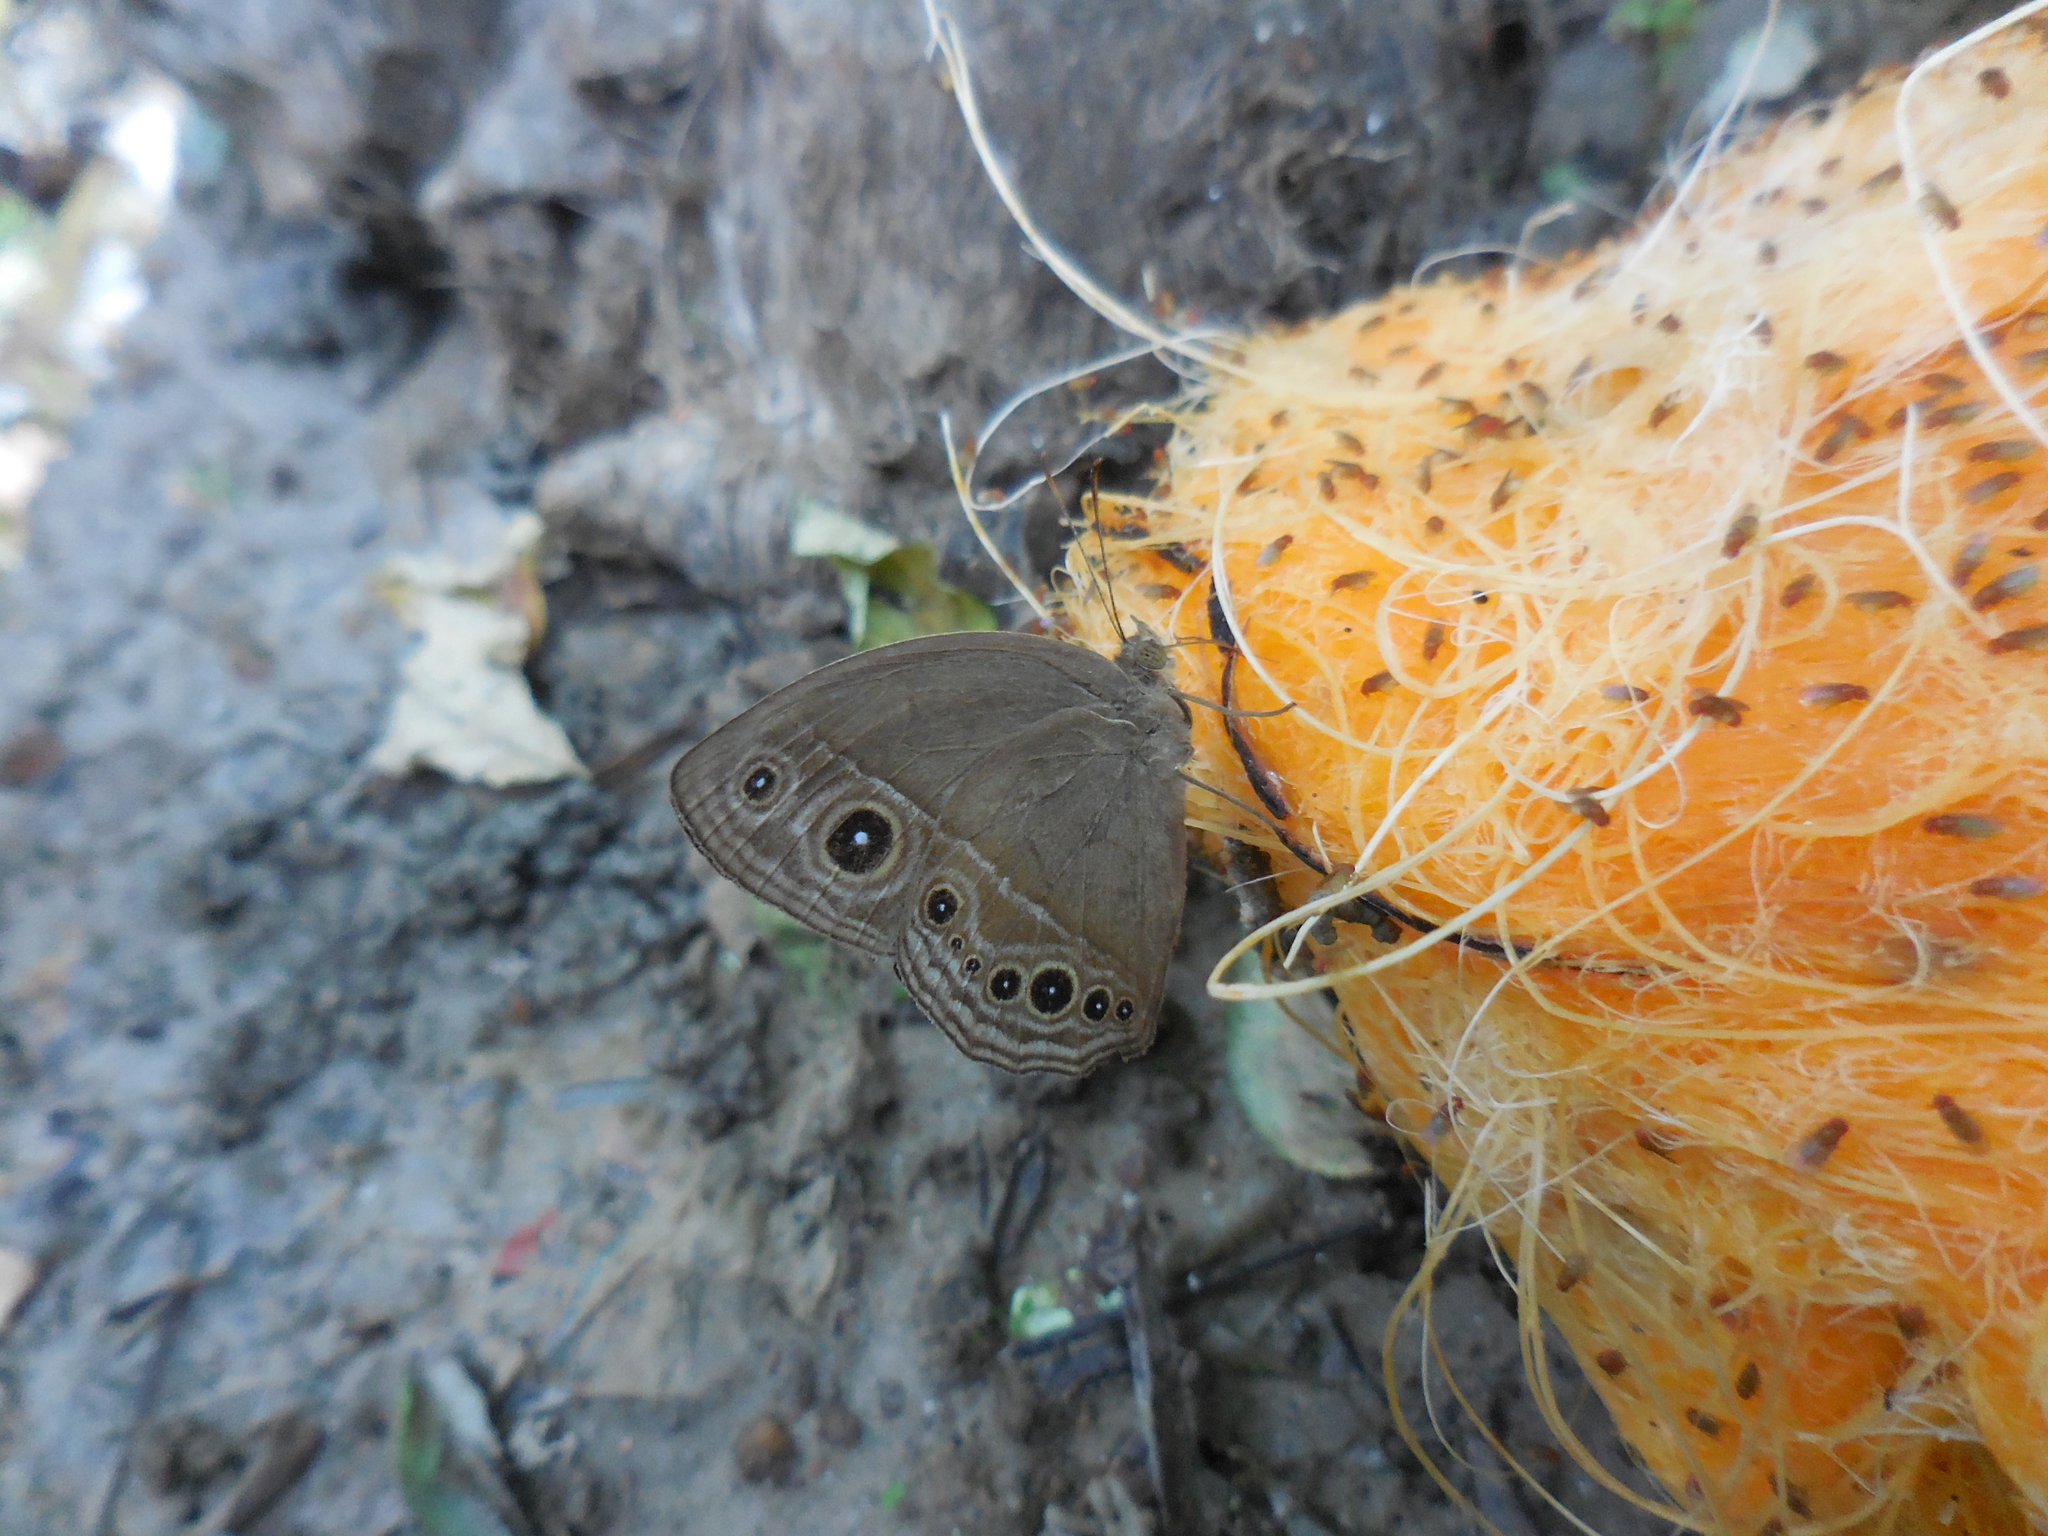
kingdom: Animalia
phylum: Arthropoda
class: Insecta
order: Lepidoptera
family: Nymphalidae
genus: Mycalesis
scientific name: Mycalesis perseus
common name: Dingy bushbrown
